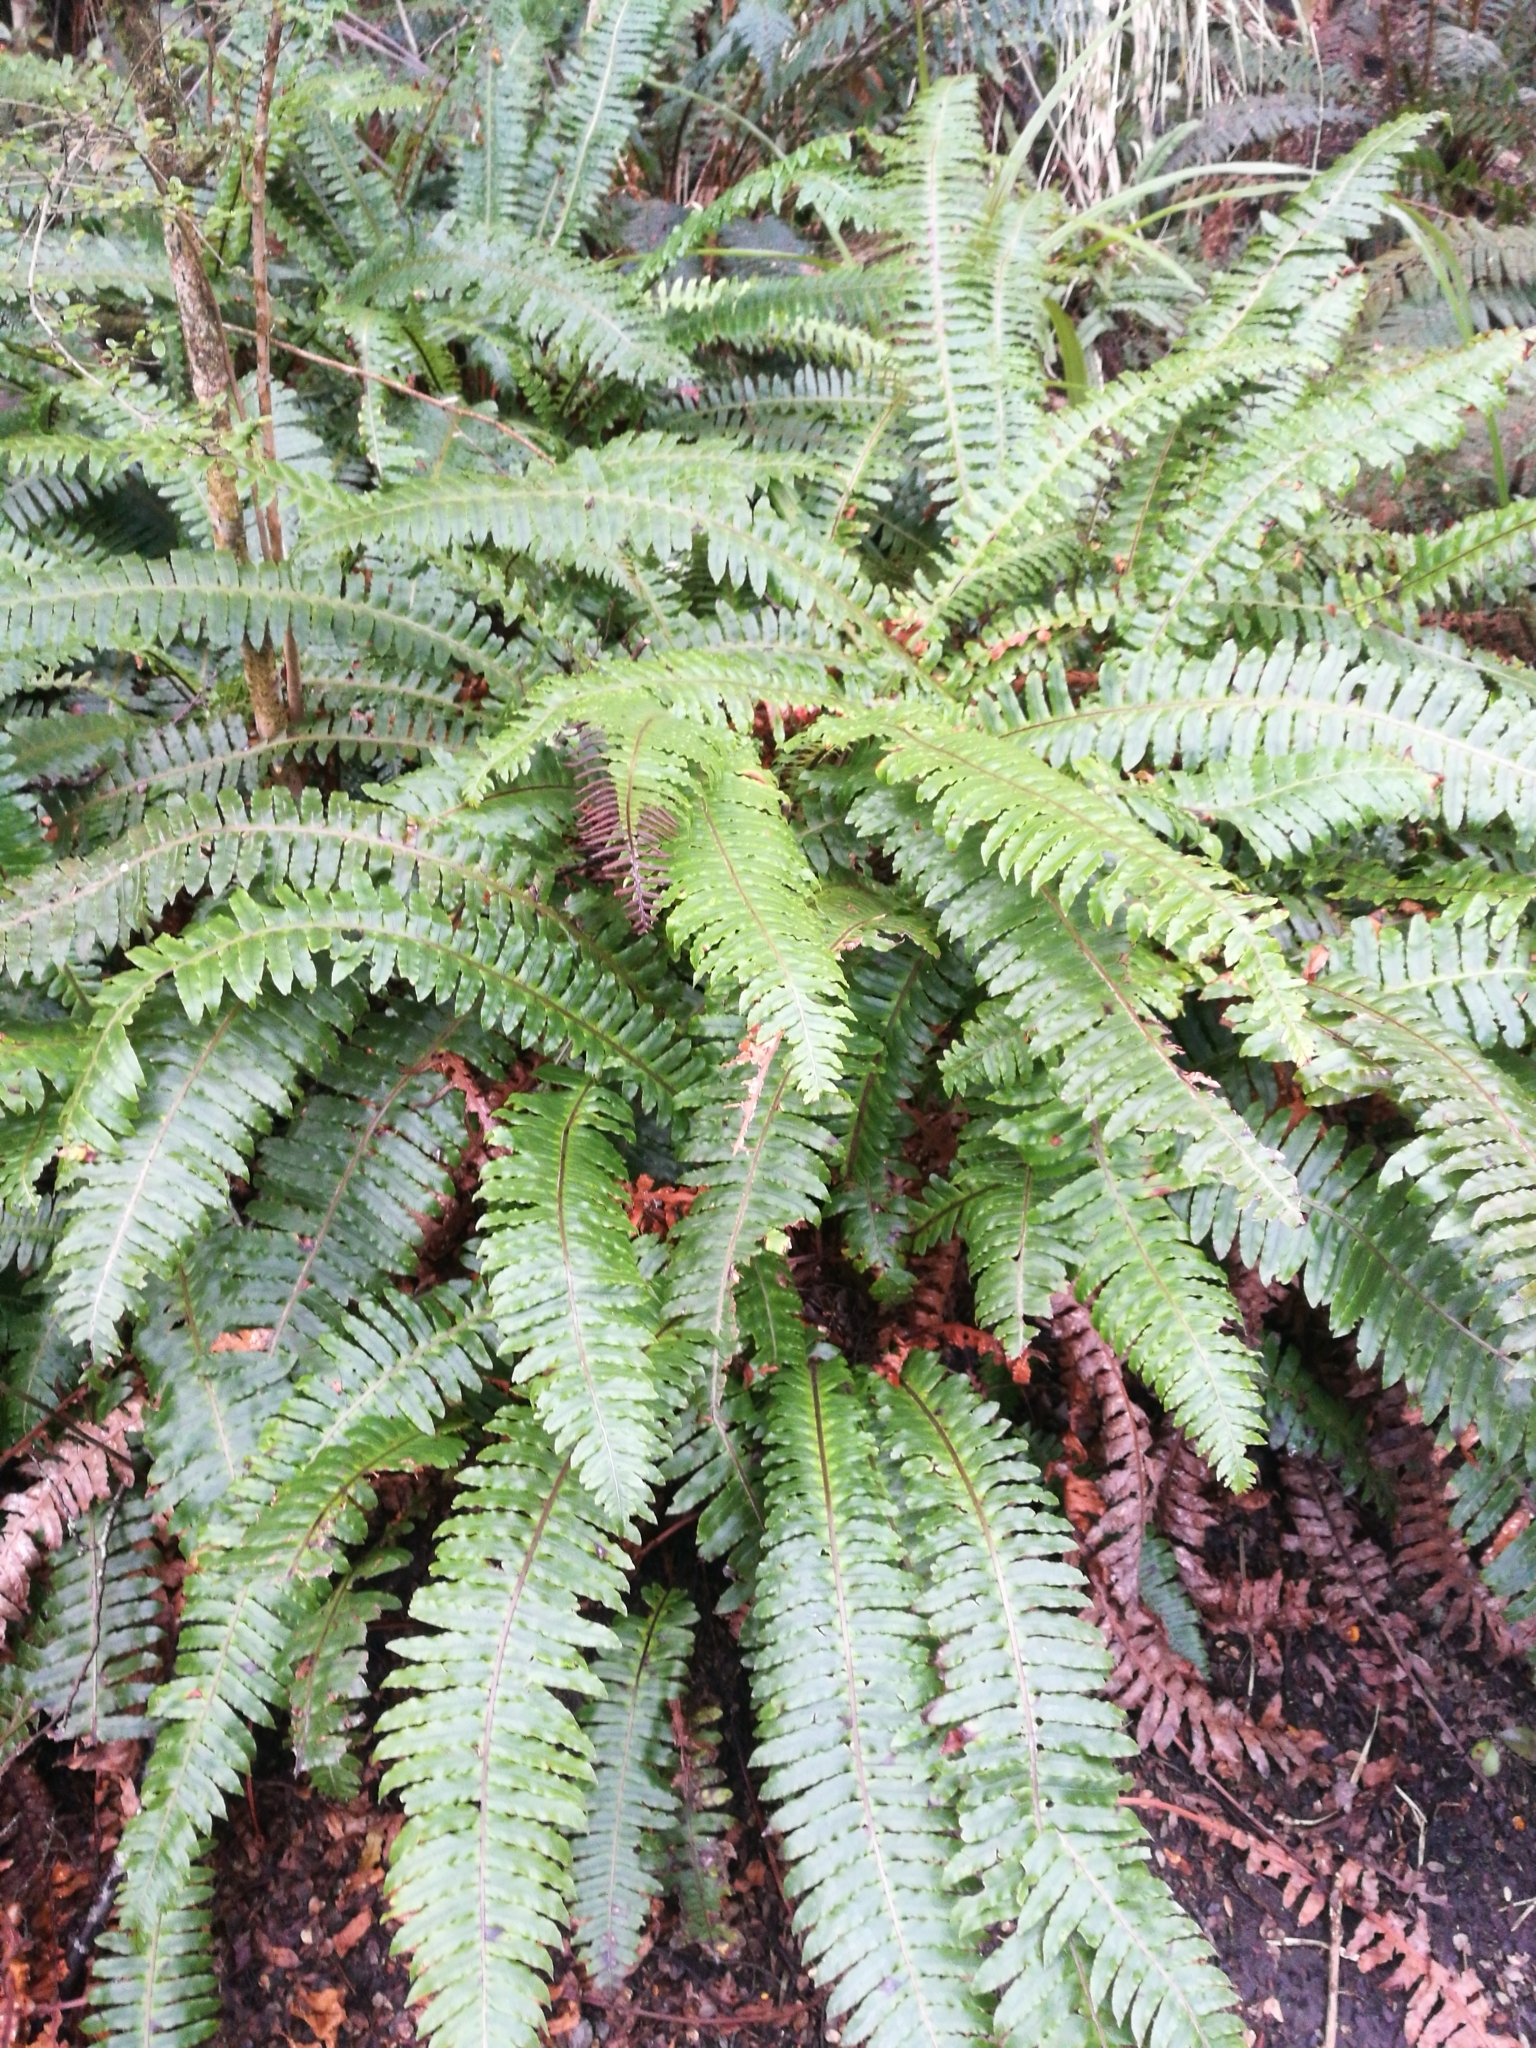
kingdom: Plantae
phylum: Tracheophyta
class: Polypodiopsida
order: Polypodiales
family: Blechnaceae
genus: Lomaria
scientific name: Lomaria discolor
